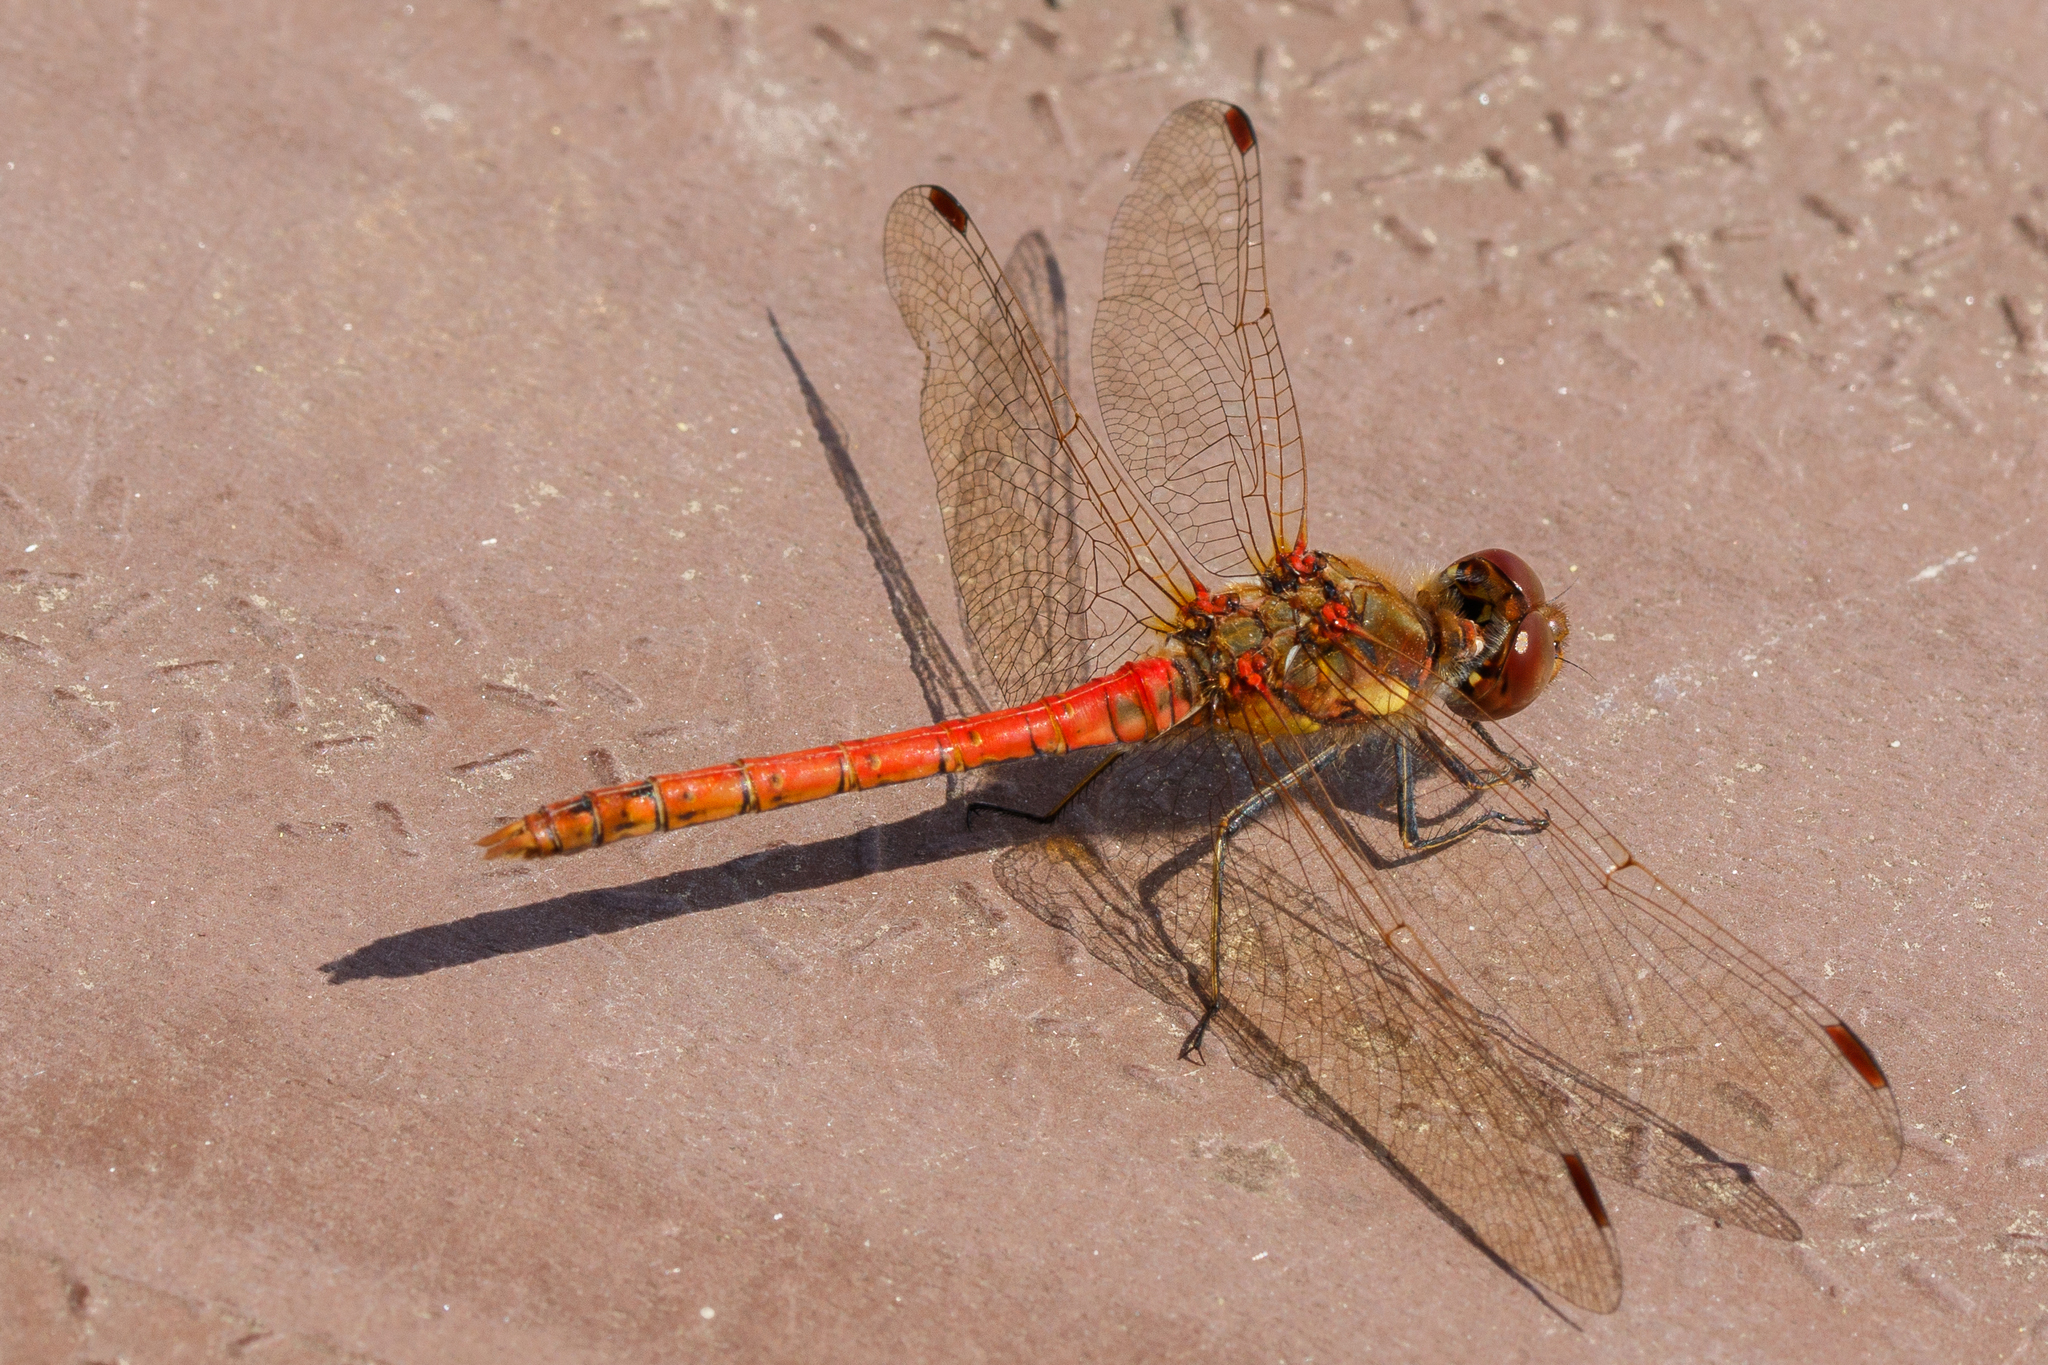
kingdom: Animalia
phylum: Arthropoda
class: Insecta
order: Odonata
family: Libellulidae
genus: Sympetrum
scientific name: Sympetrum striolatum
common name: Common darter
